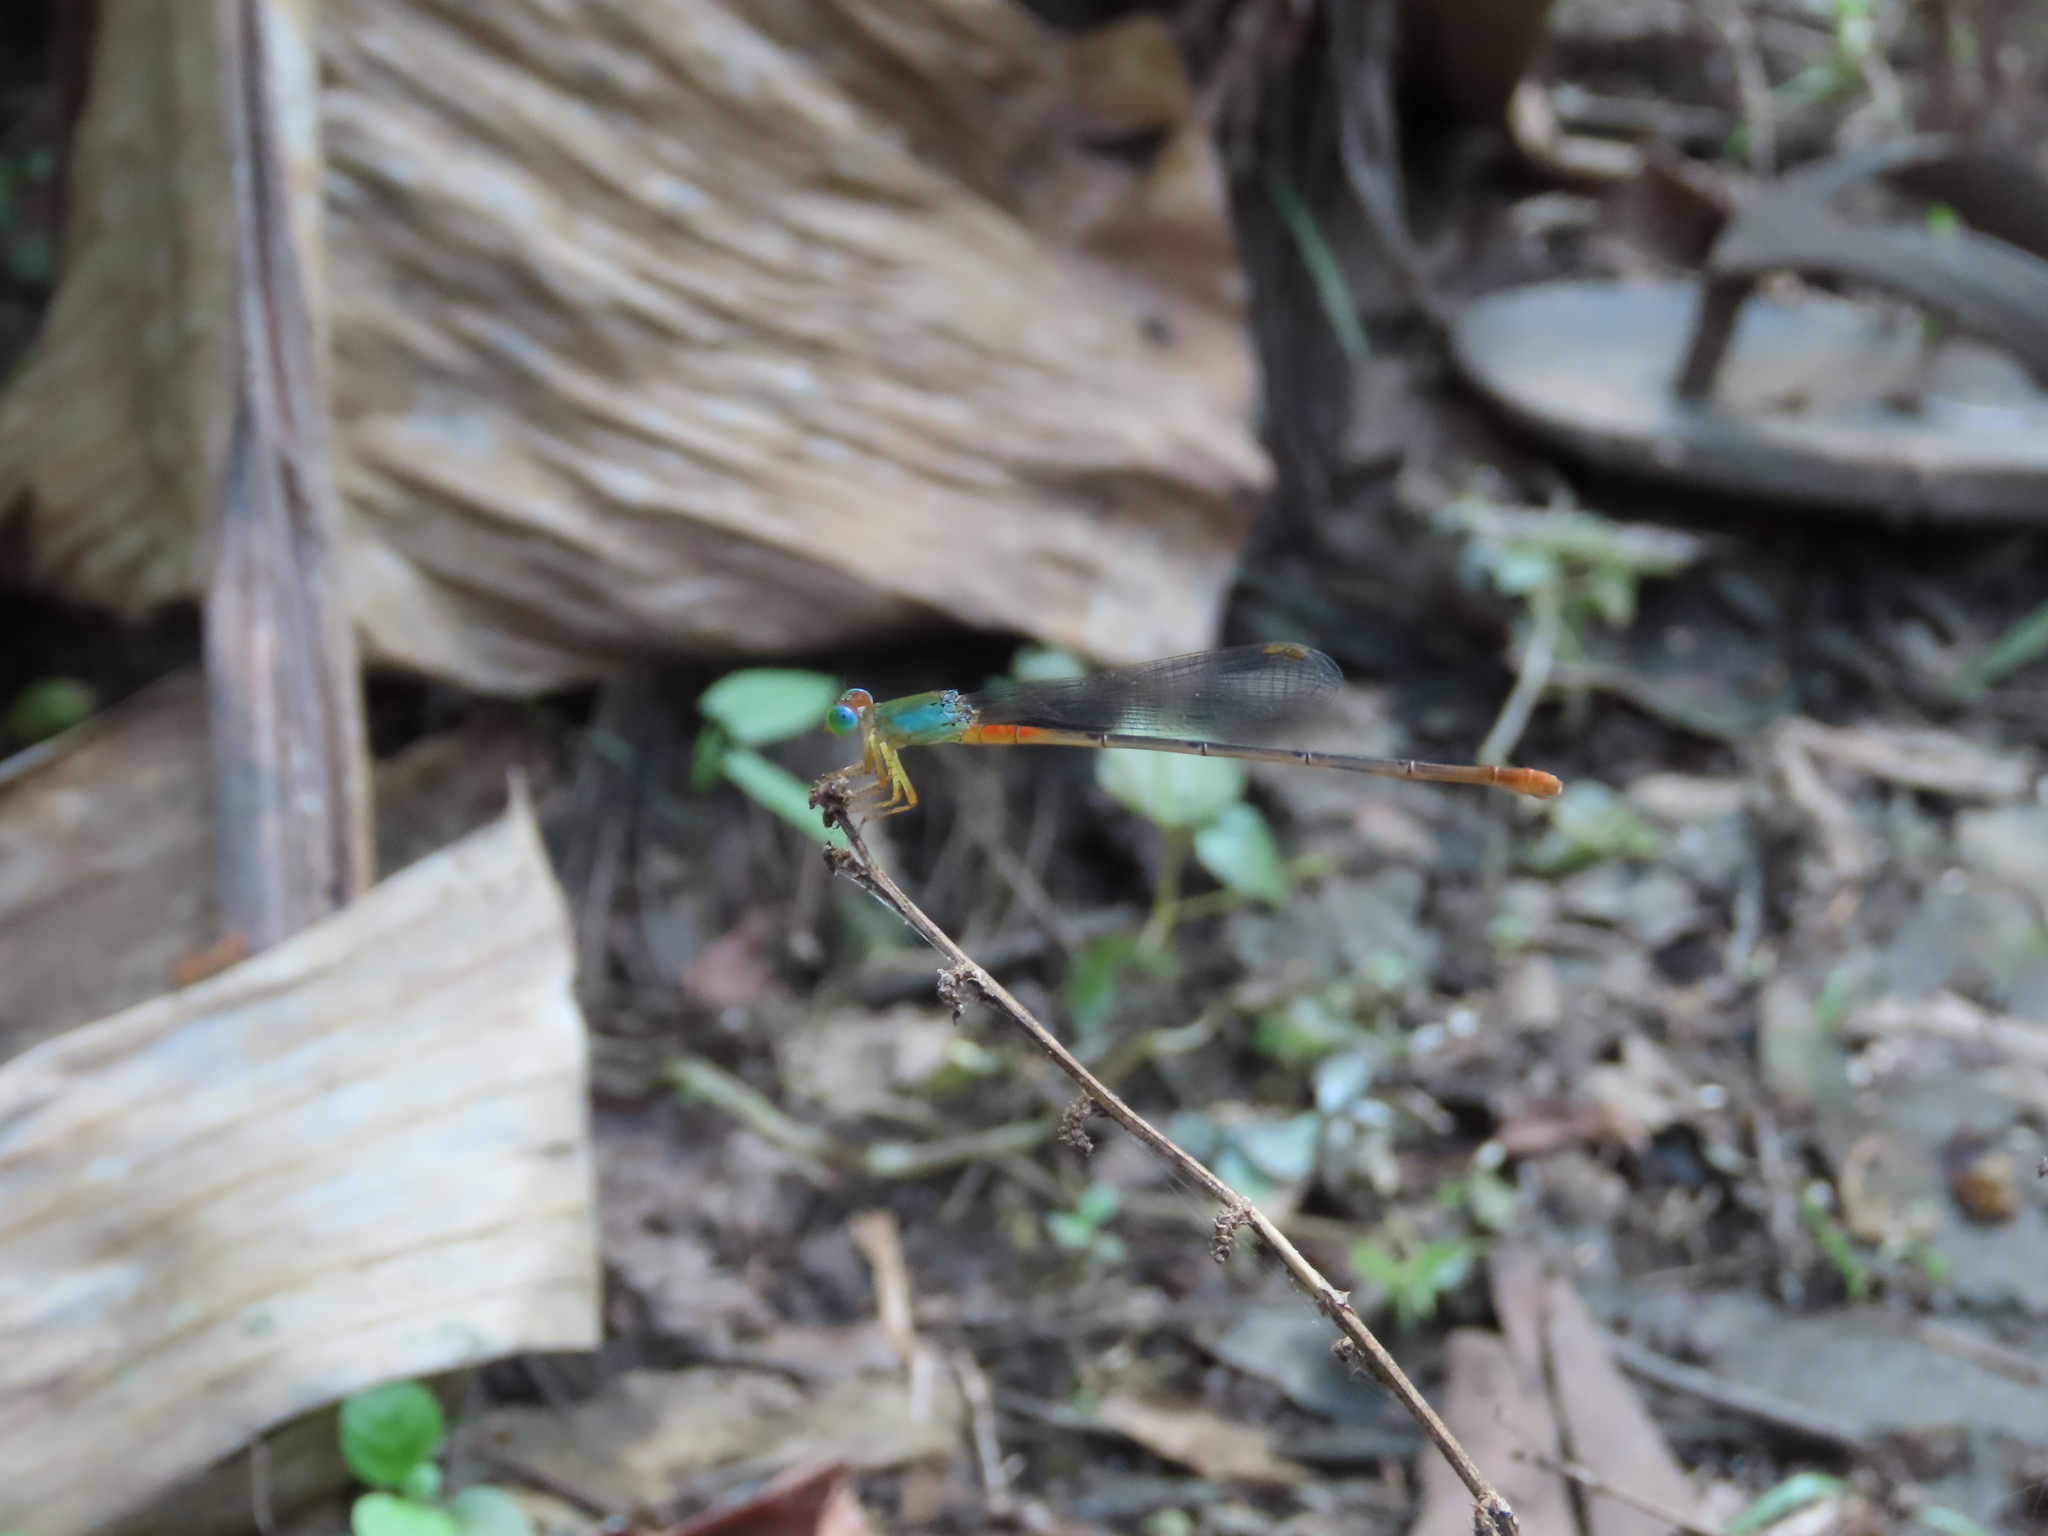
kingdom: Animalia
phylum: Arthropoda
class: Insecta
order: Odonata
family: Coenagrionidae
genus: Ceriagrion
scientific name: Ceriagrion cerinorubellum
